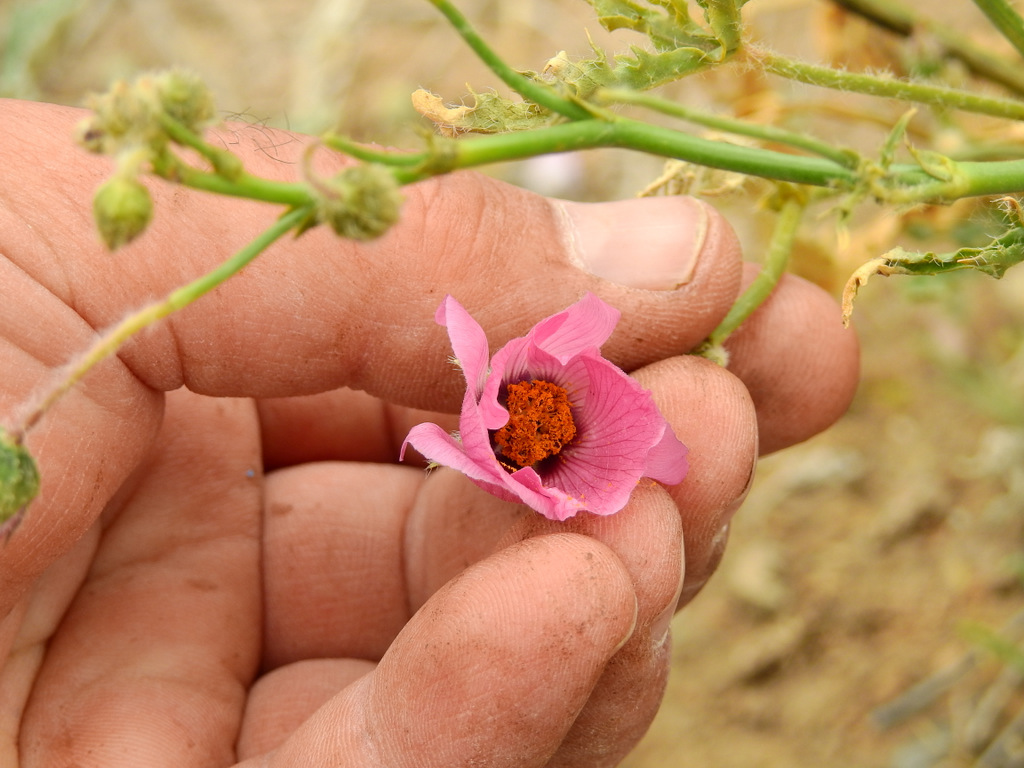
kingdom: Plantae
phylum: Tracheophyta
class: Magnoliopsida
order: Malvales
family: Malvaceae
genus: Lecanophora
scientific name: Lecanophora heterophylla
